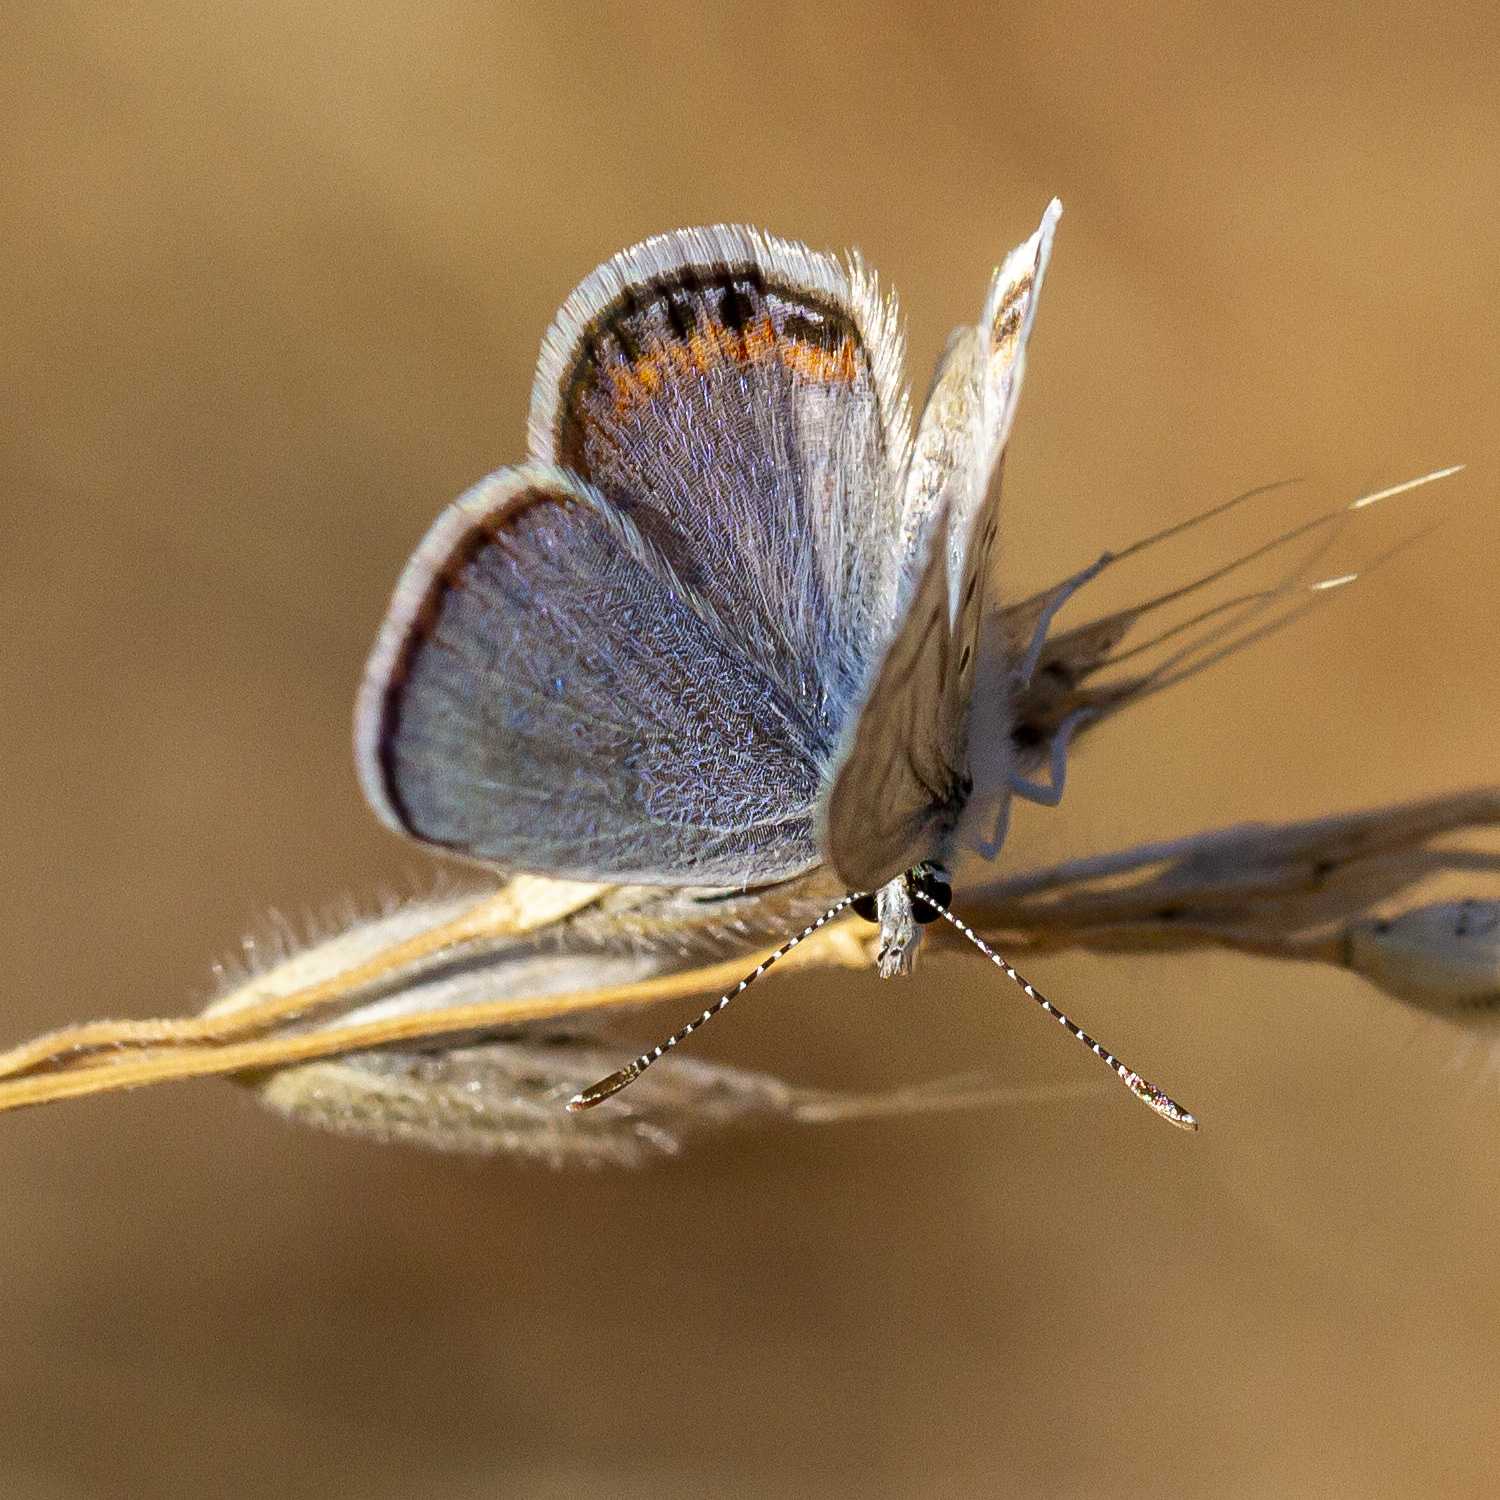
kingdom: Animalia
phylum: Arthropoda
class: Insecta
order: Lepidoptera
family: Lycaenidae
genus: Icaricia
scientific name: Icaricia acmon
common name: Acmon blue
